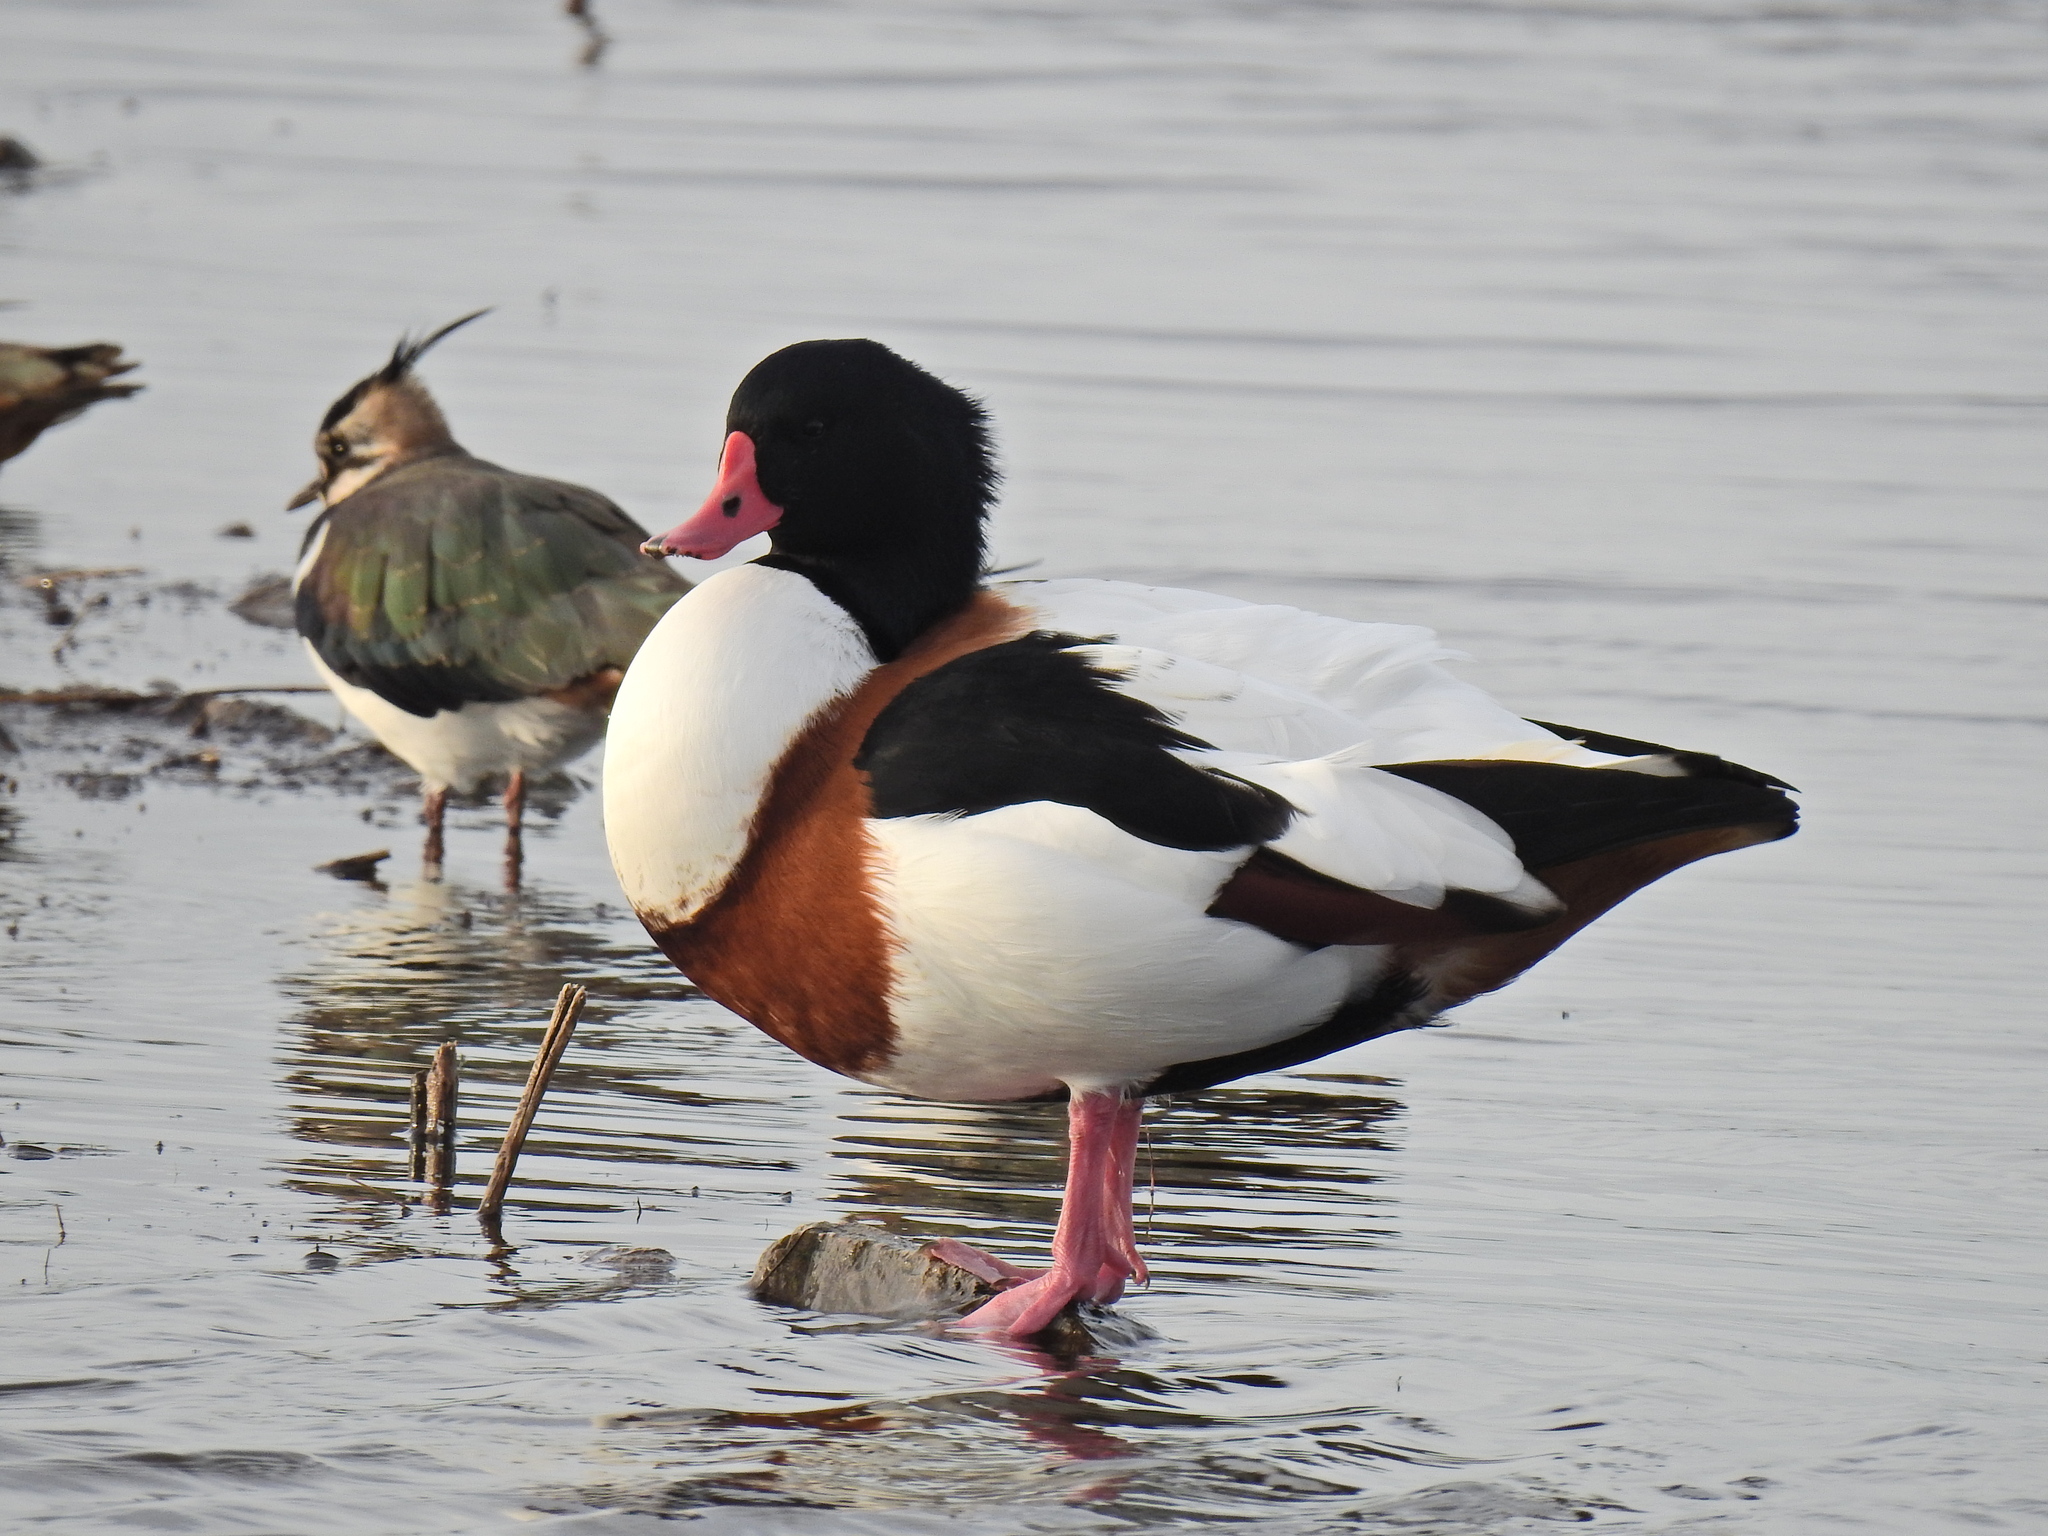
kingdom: Animalia
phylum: Chordata
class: Aves
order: Anseriformes
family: Anatidae
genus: Tadorna
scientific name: Tadorna tadorna
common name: Common shelduck
